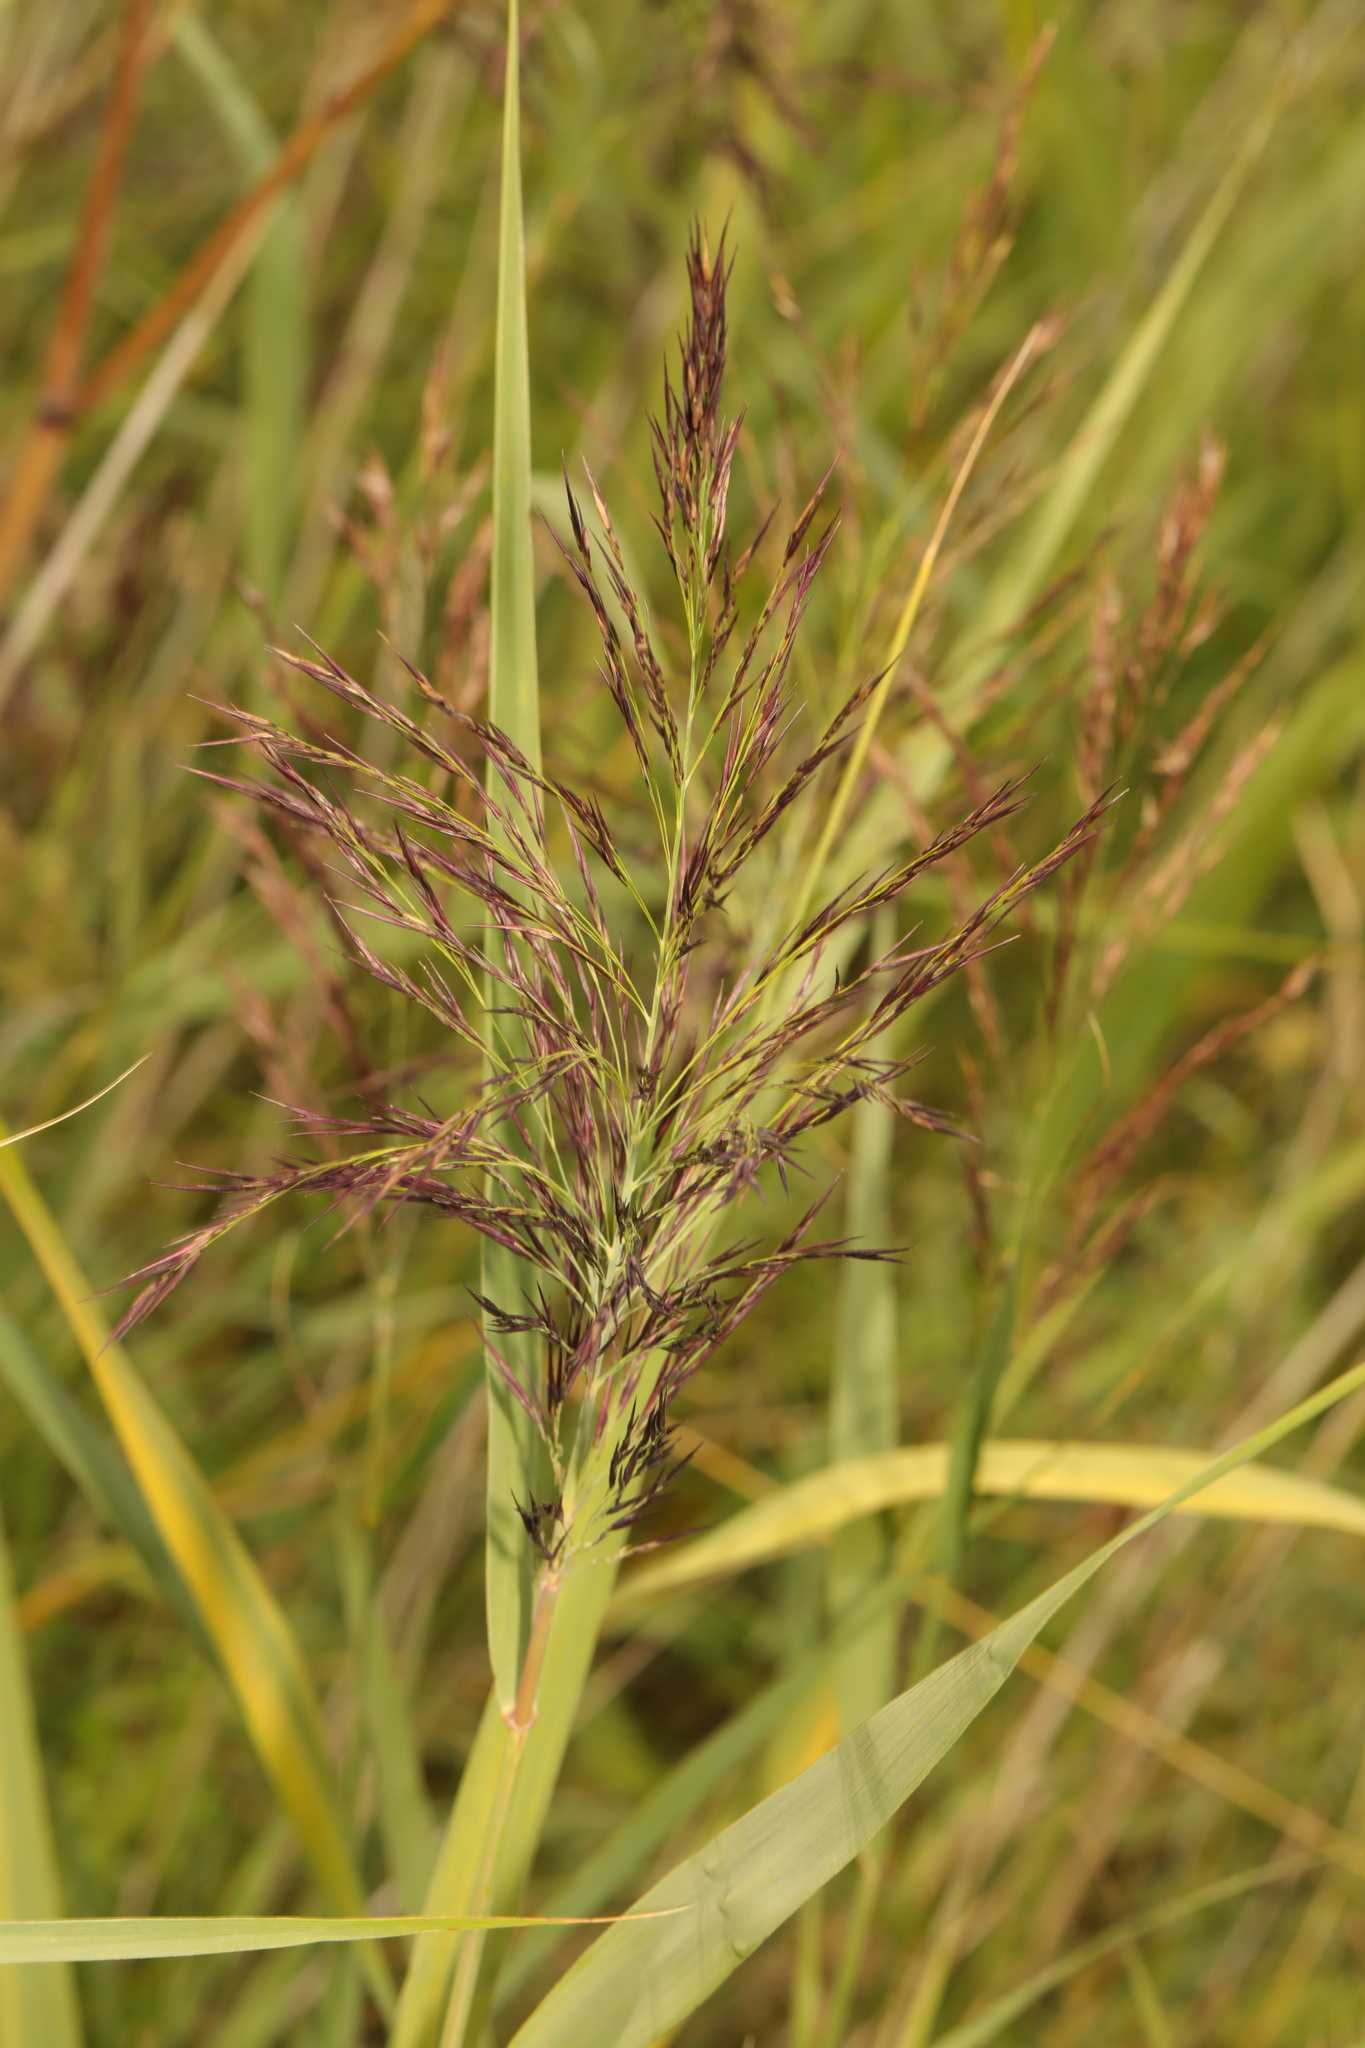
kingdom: Plantae
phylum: Tracheophyta
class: Liliopsida
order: Poales
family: Poaceae
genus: Phragmites
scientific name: Phragmites australis
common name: Common reed
